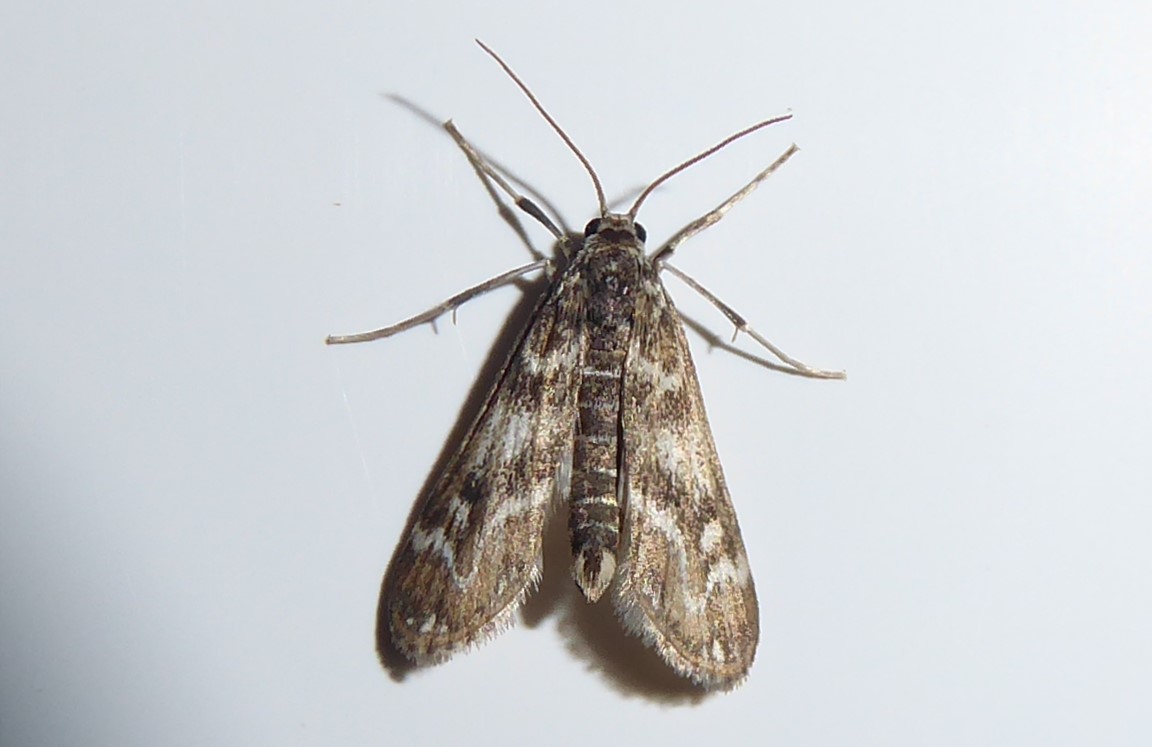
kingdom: Animalia
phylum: Arthropoda
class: Insecta
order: Lepidoptera
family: Crambidae
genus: Hygraula
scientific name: Hygraula nitens
